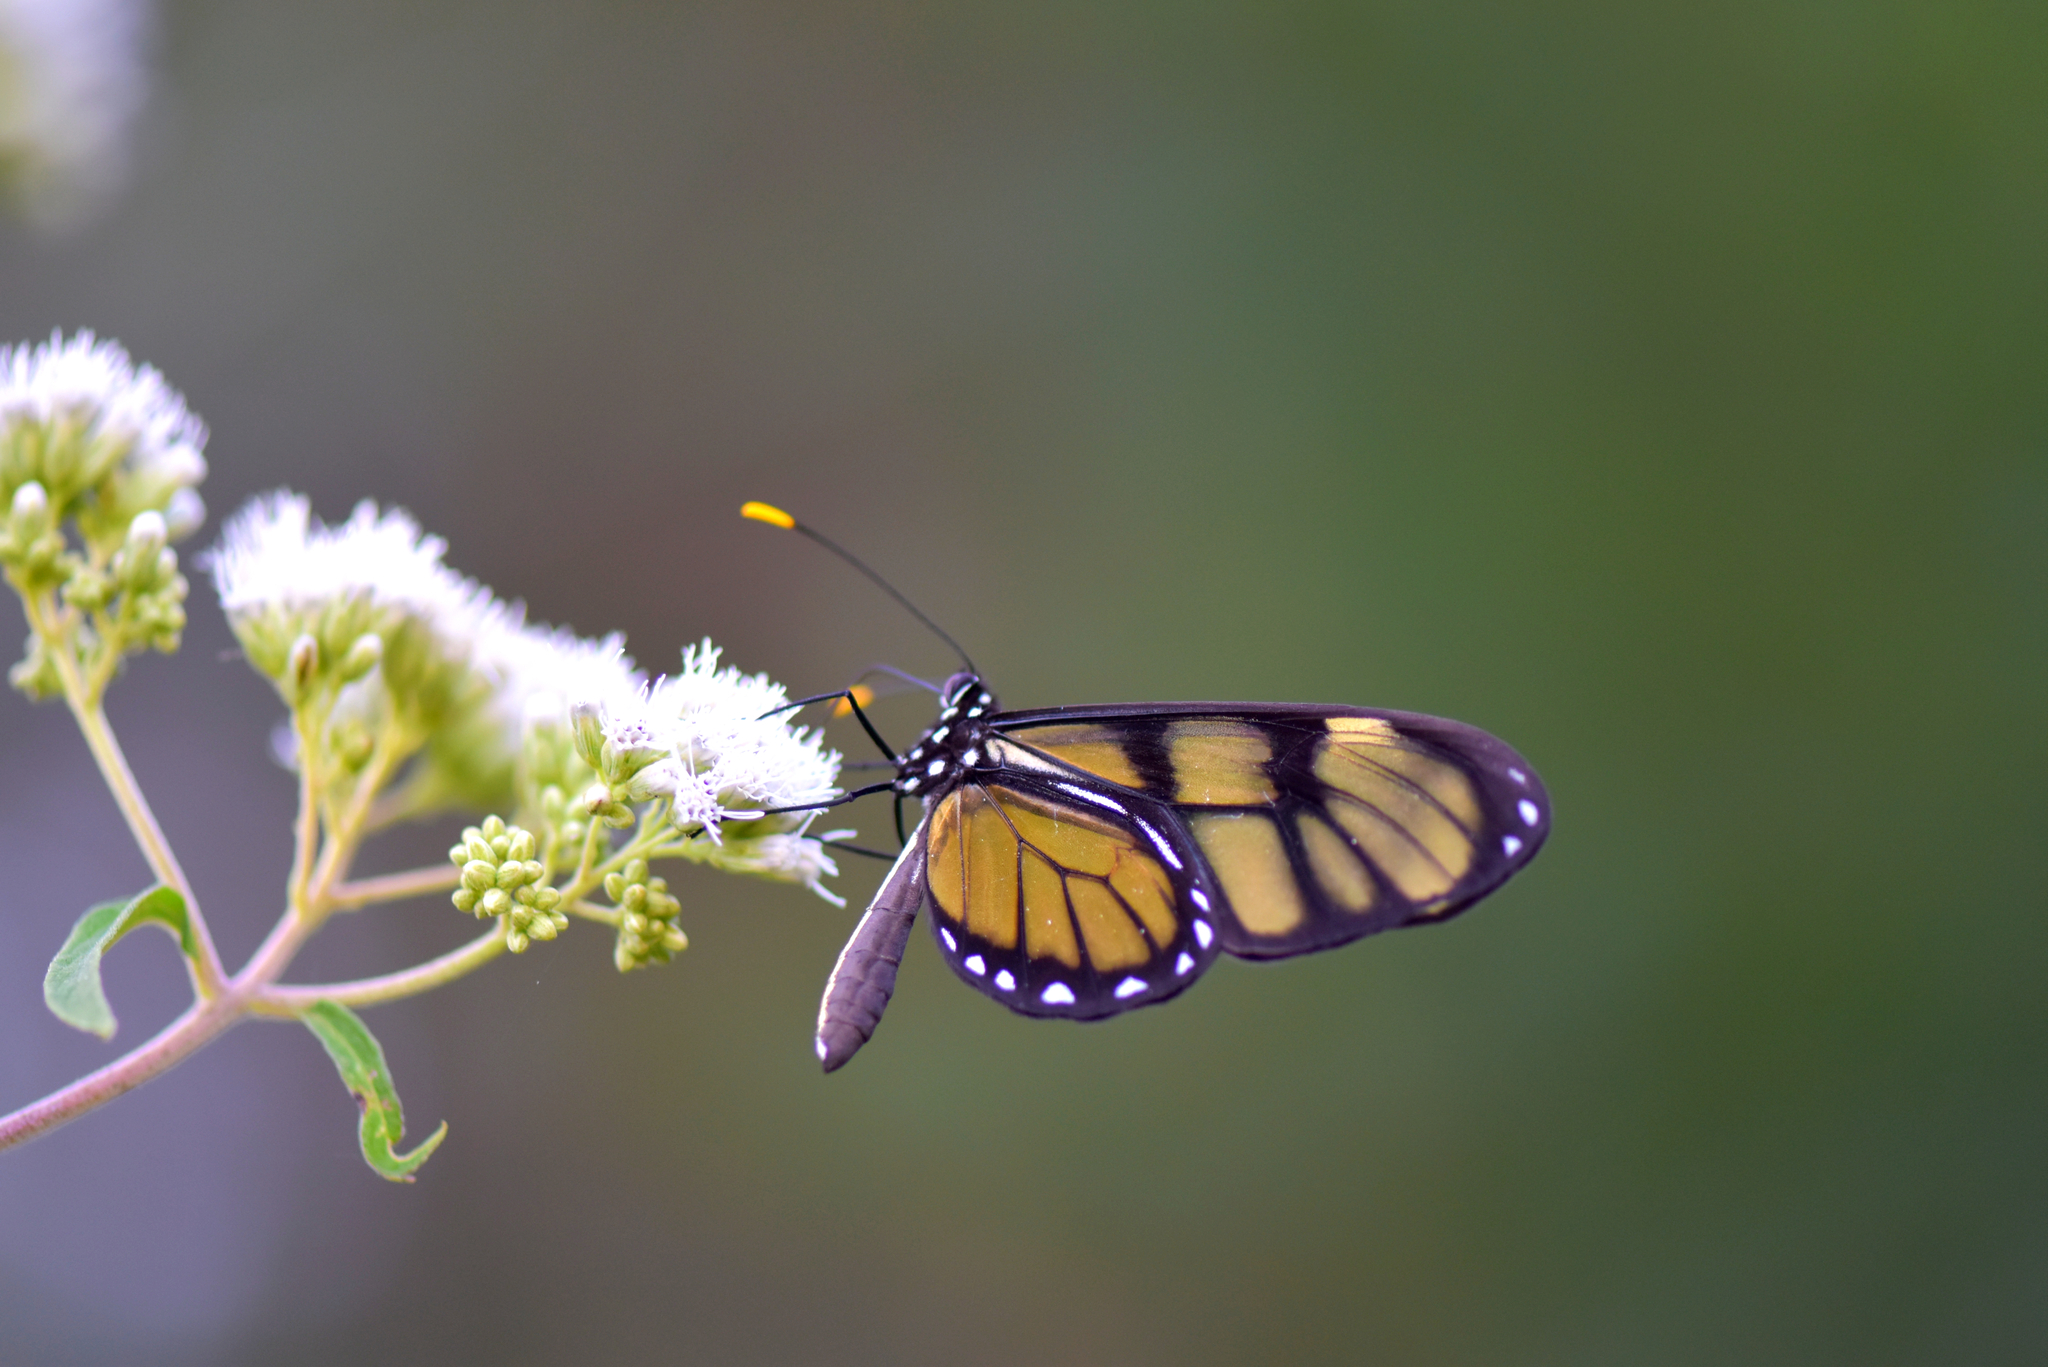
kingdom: Animalia
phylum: Arthropoda
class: Insecta
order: Lepidoptera
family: Nymphalidae
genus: Dircenna
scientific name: Dircenna dero
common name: Dero clearwing
